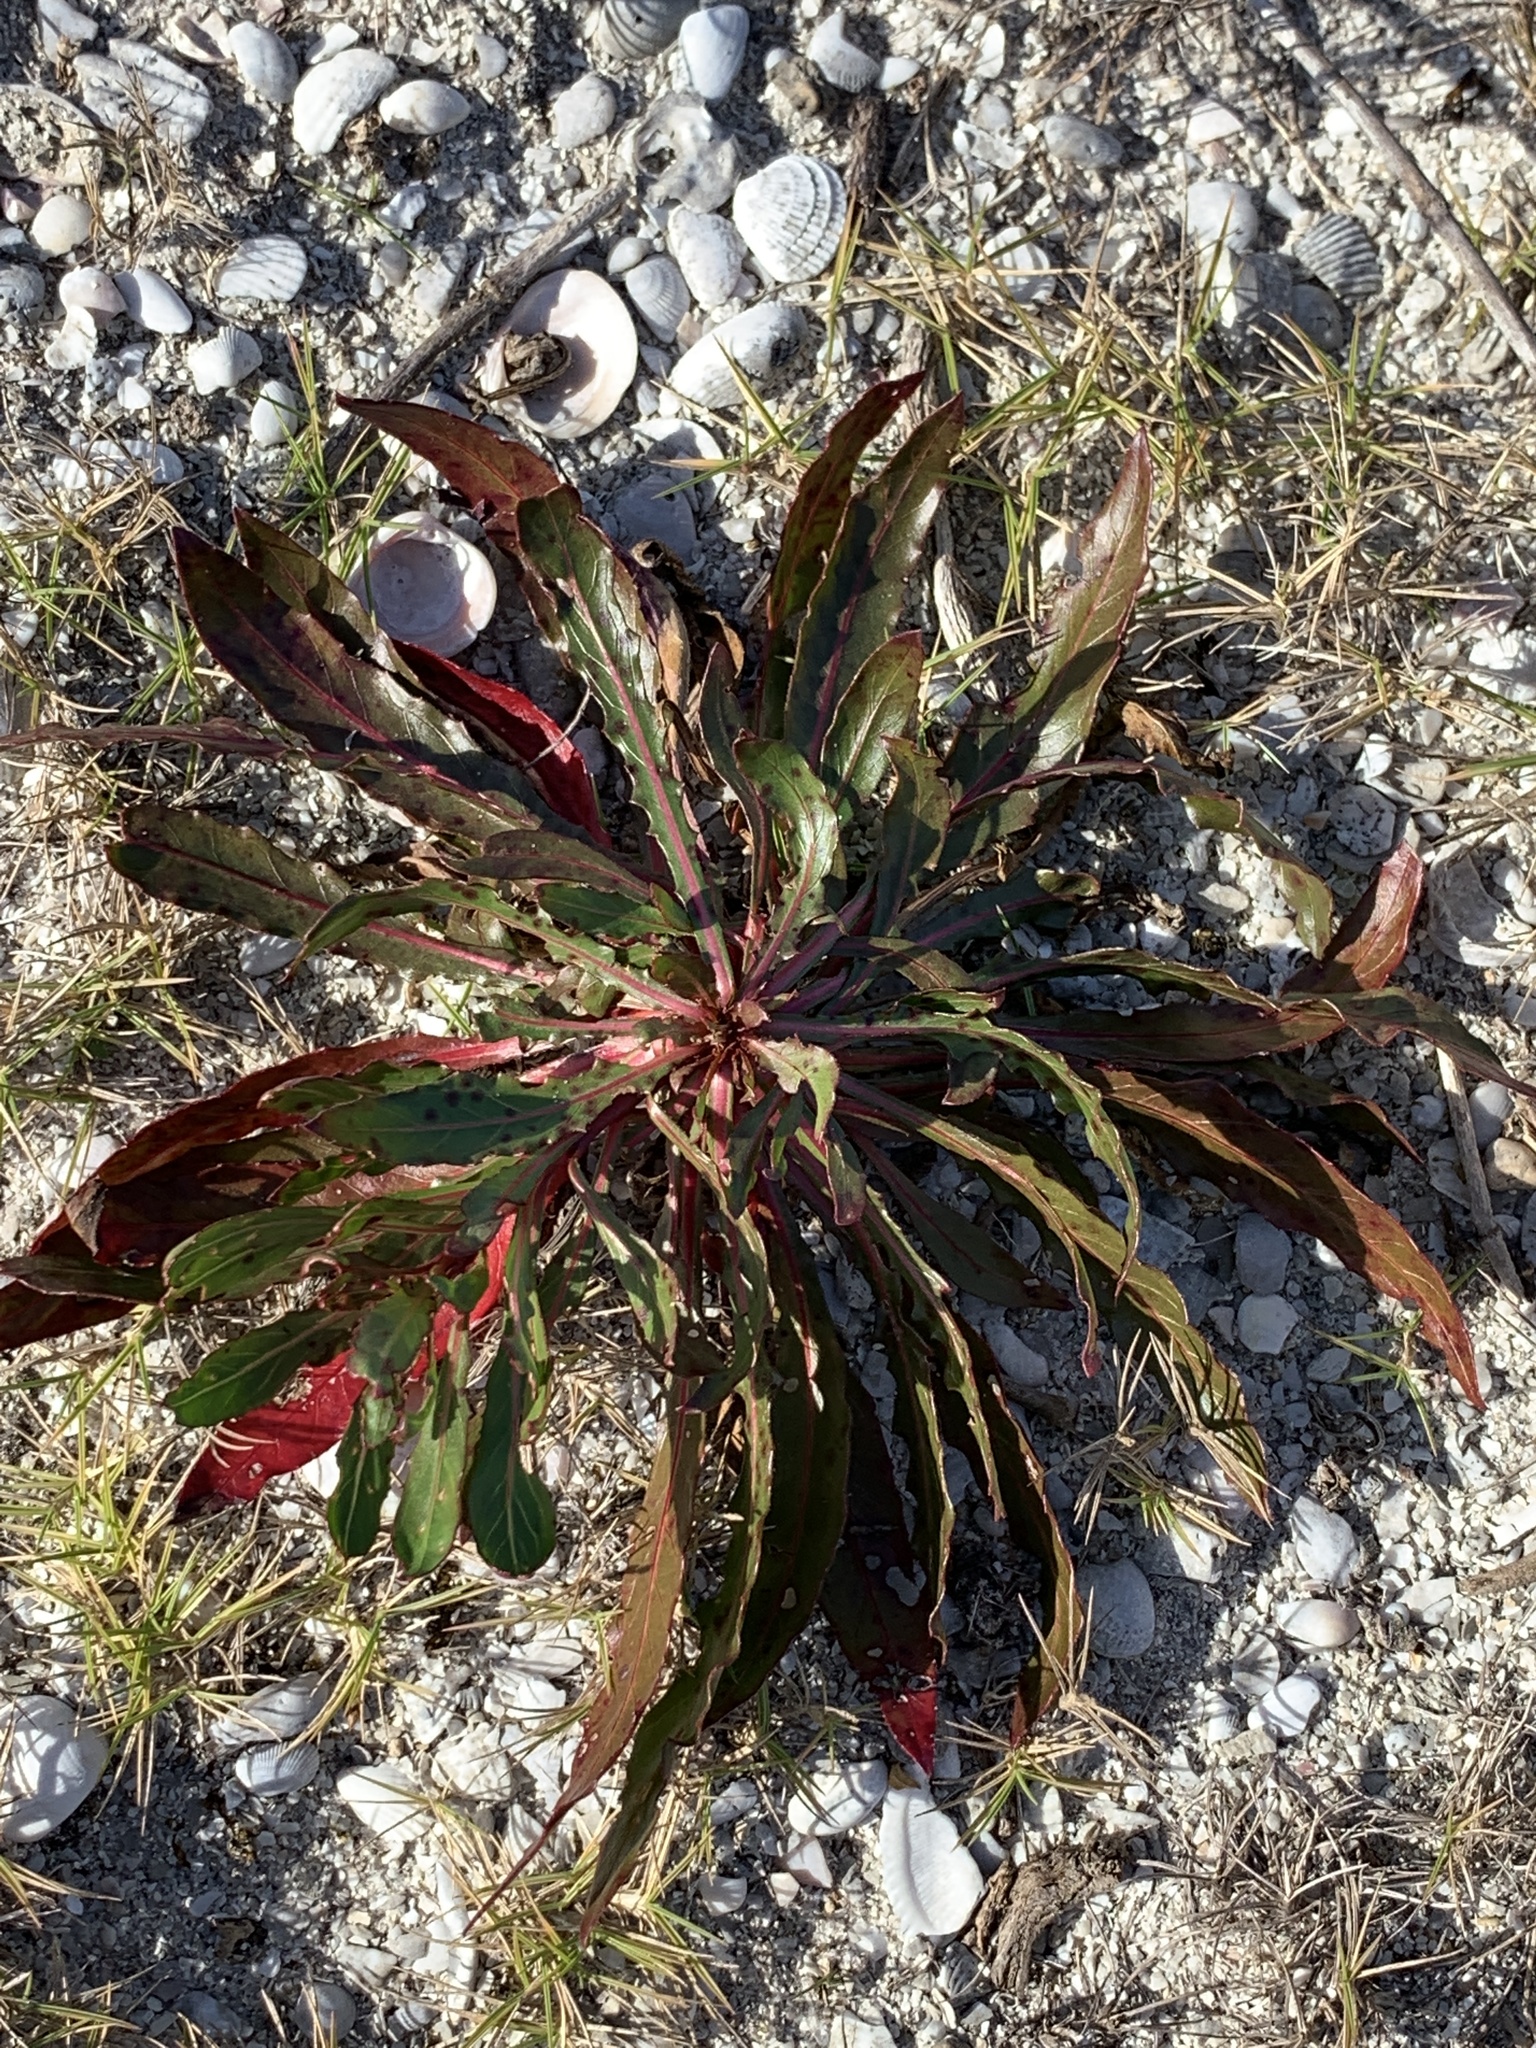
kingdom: Plantae
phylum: Tracheophyta
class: Magnoliopsida
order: Myrtales
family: Onagraceae
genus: Oenothera
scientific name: Oenothera simulans
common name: Southern beeblossom
